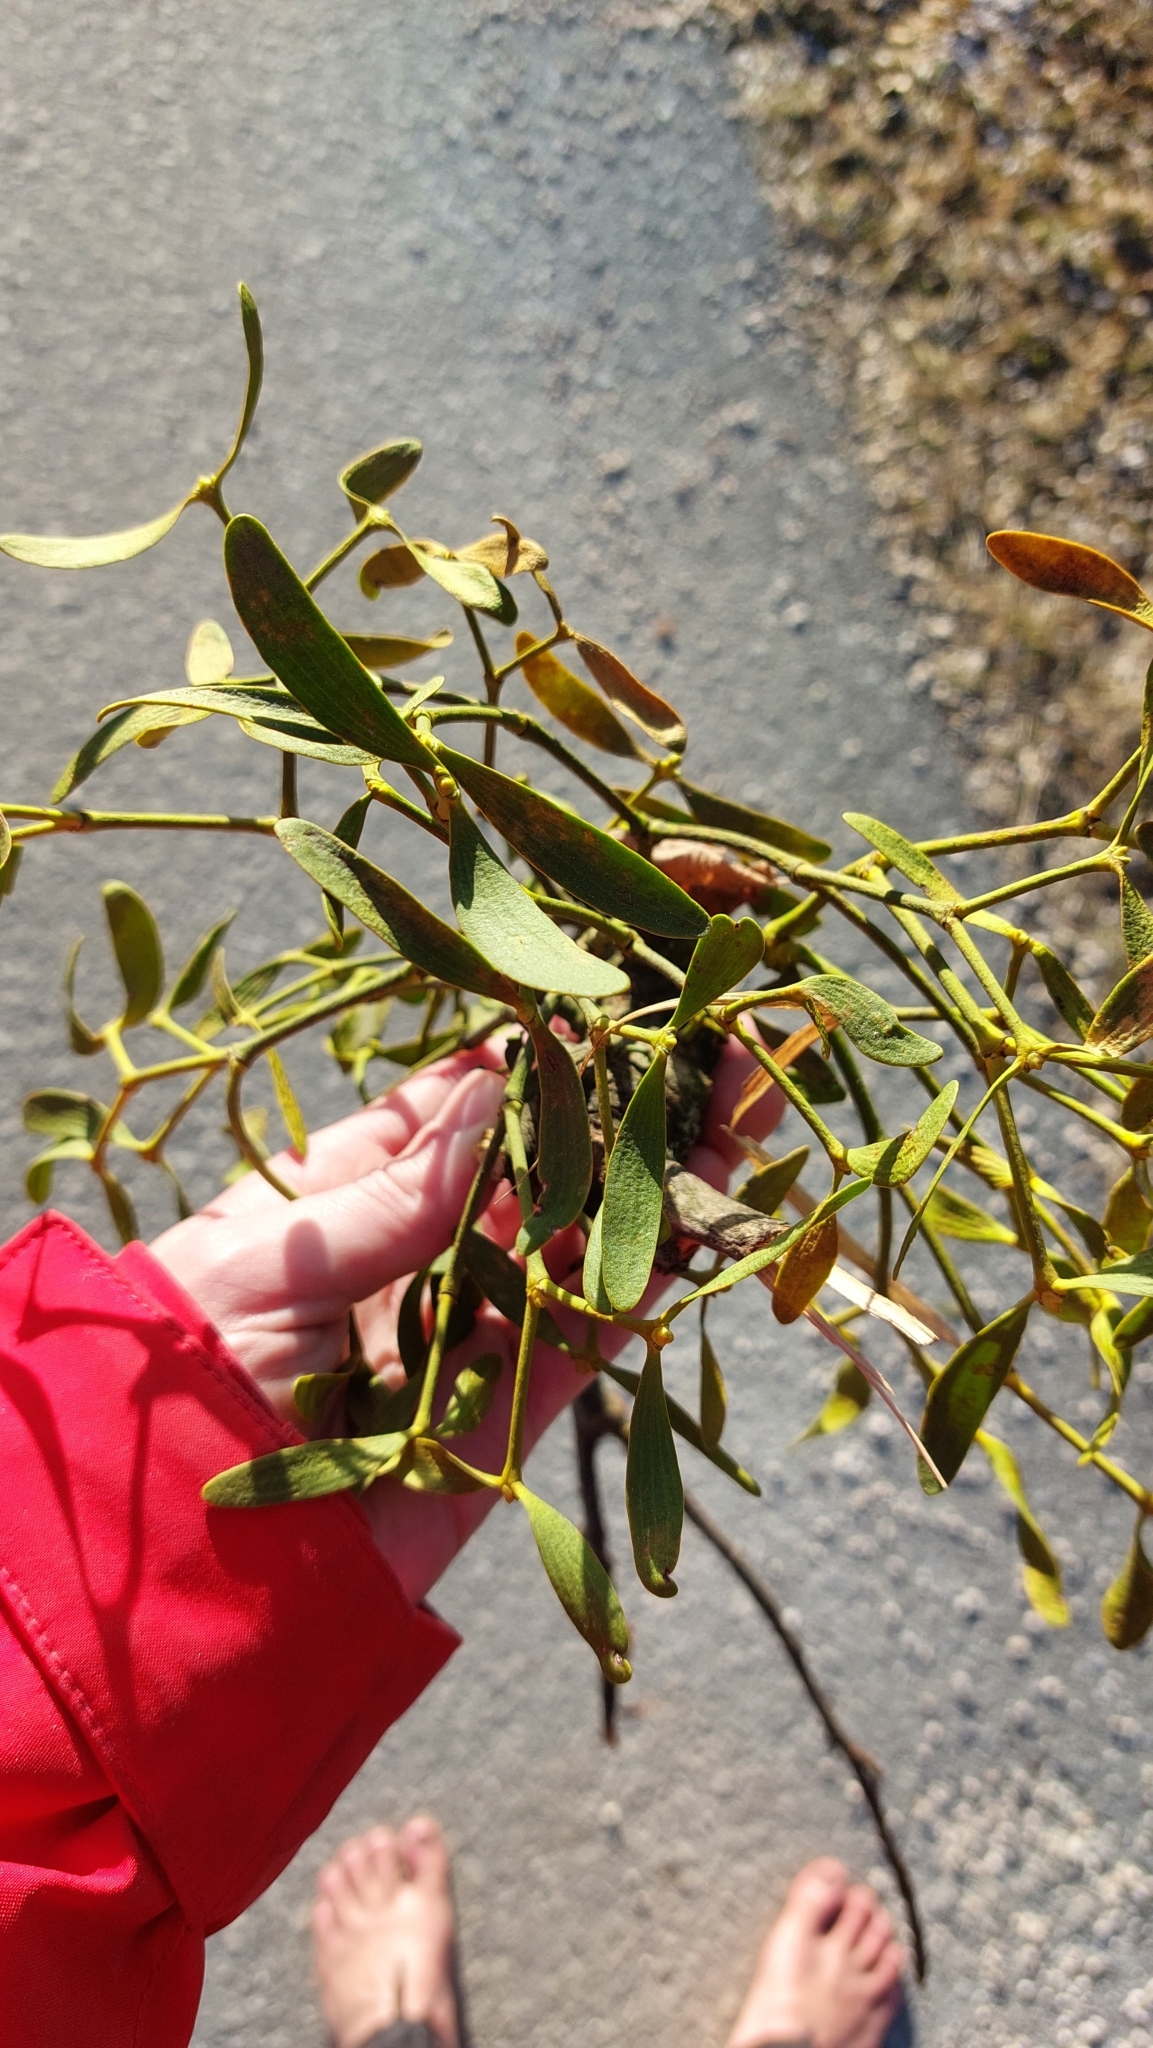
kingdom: Plantae
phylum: Tracheophyta
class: Magnoliopsida
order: Santalales
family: Viscaceae
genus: Viscum
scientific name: Viscum album
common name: Mistletoe
